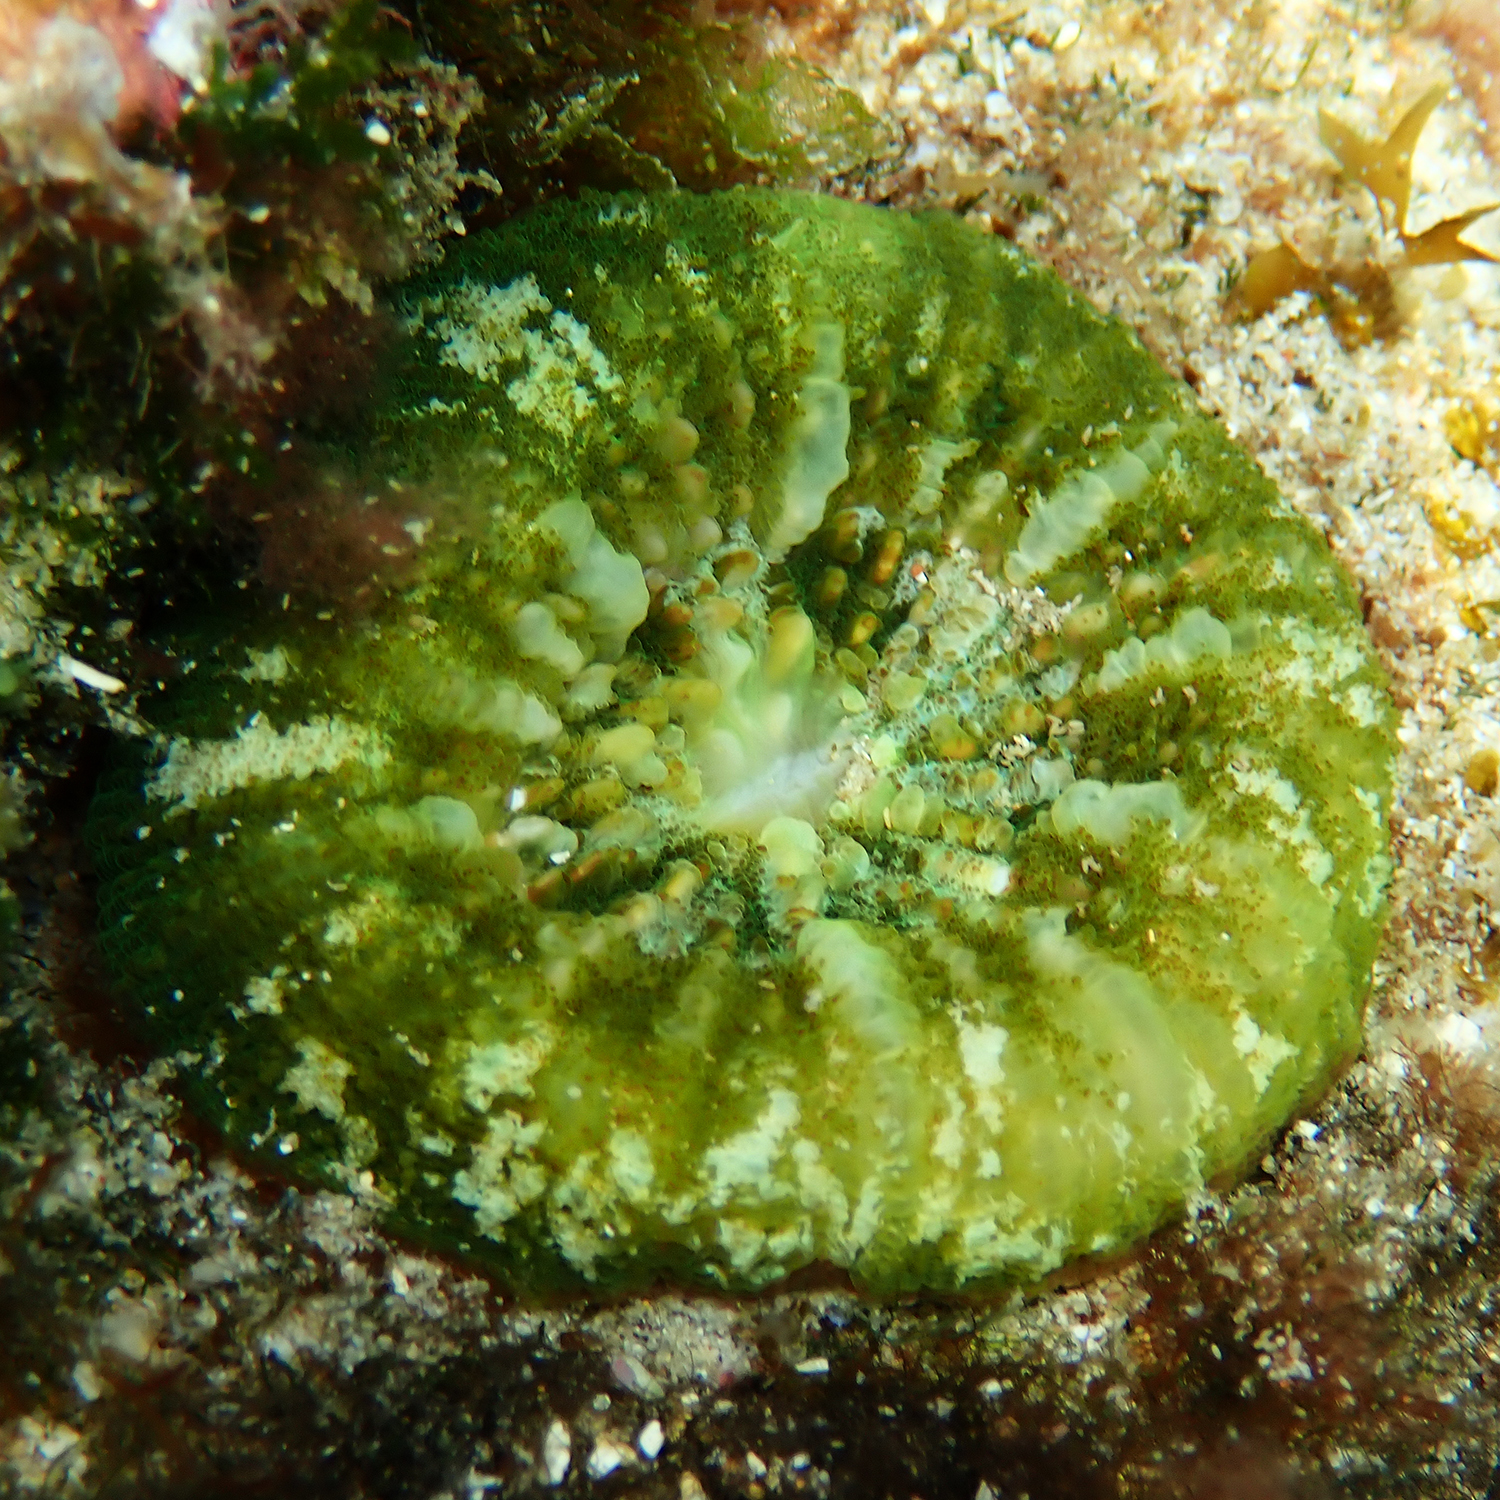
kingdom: Animalia
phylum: Cnidaria
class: Anthozoa
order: Scleractinia
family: Lobophylliidae
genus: Homophyllia
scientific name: Homophyllia australis
